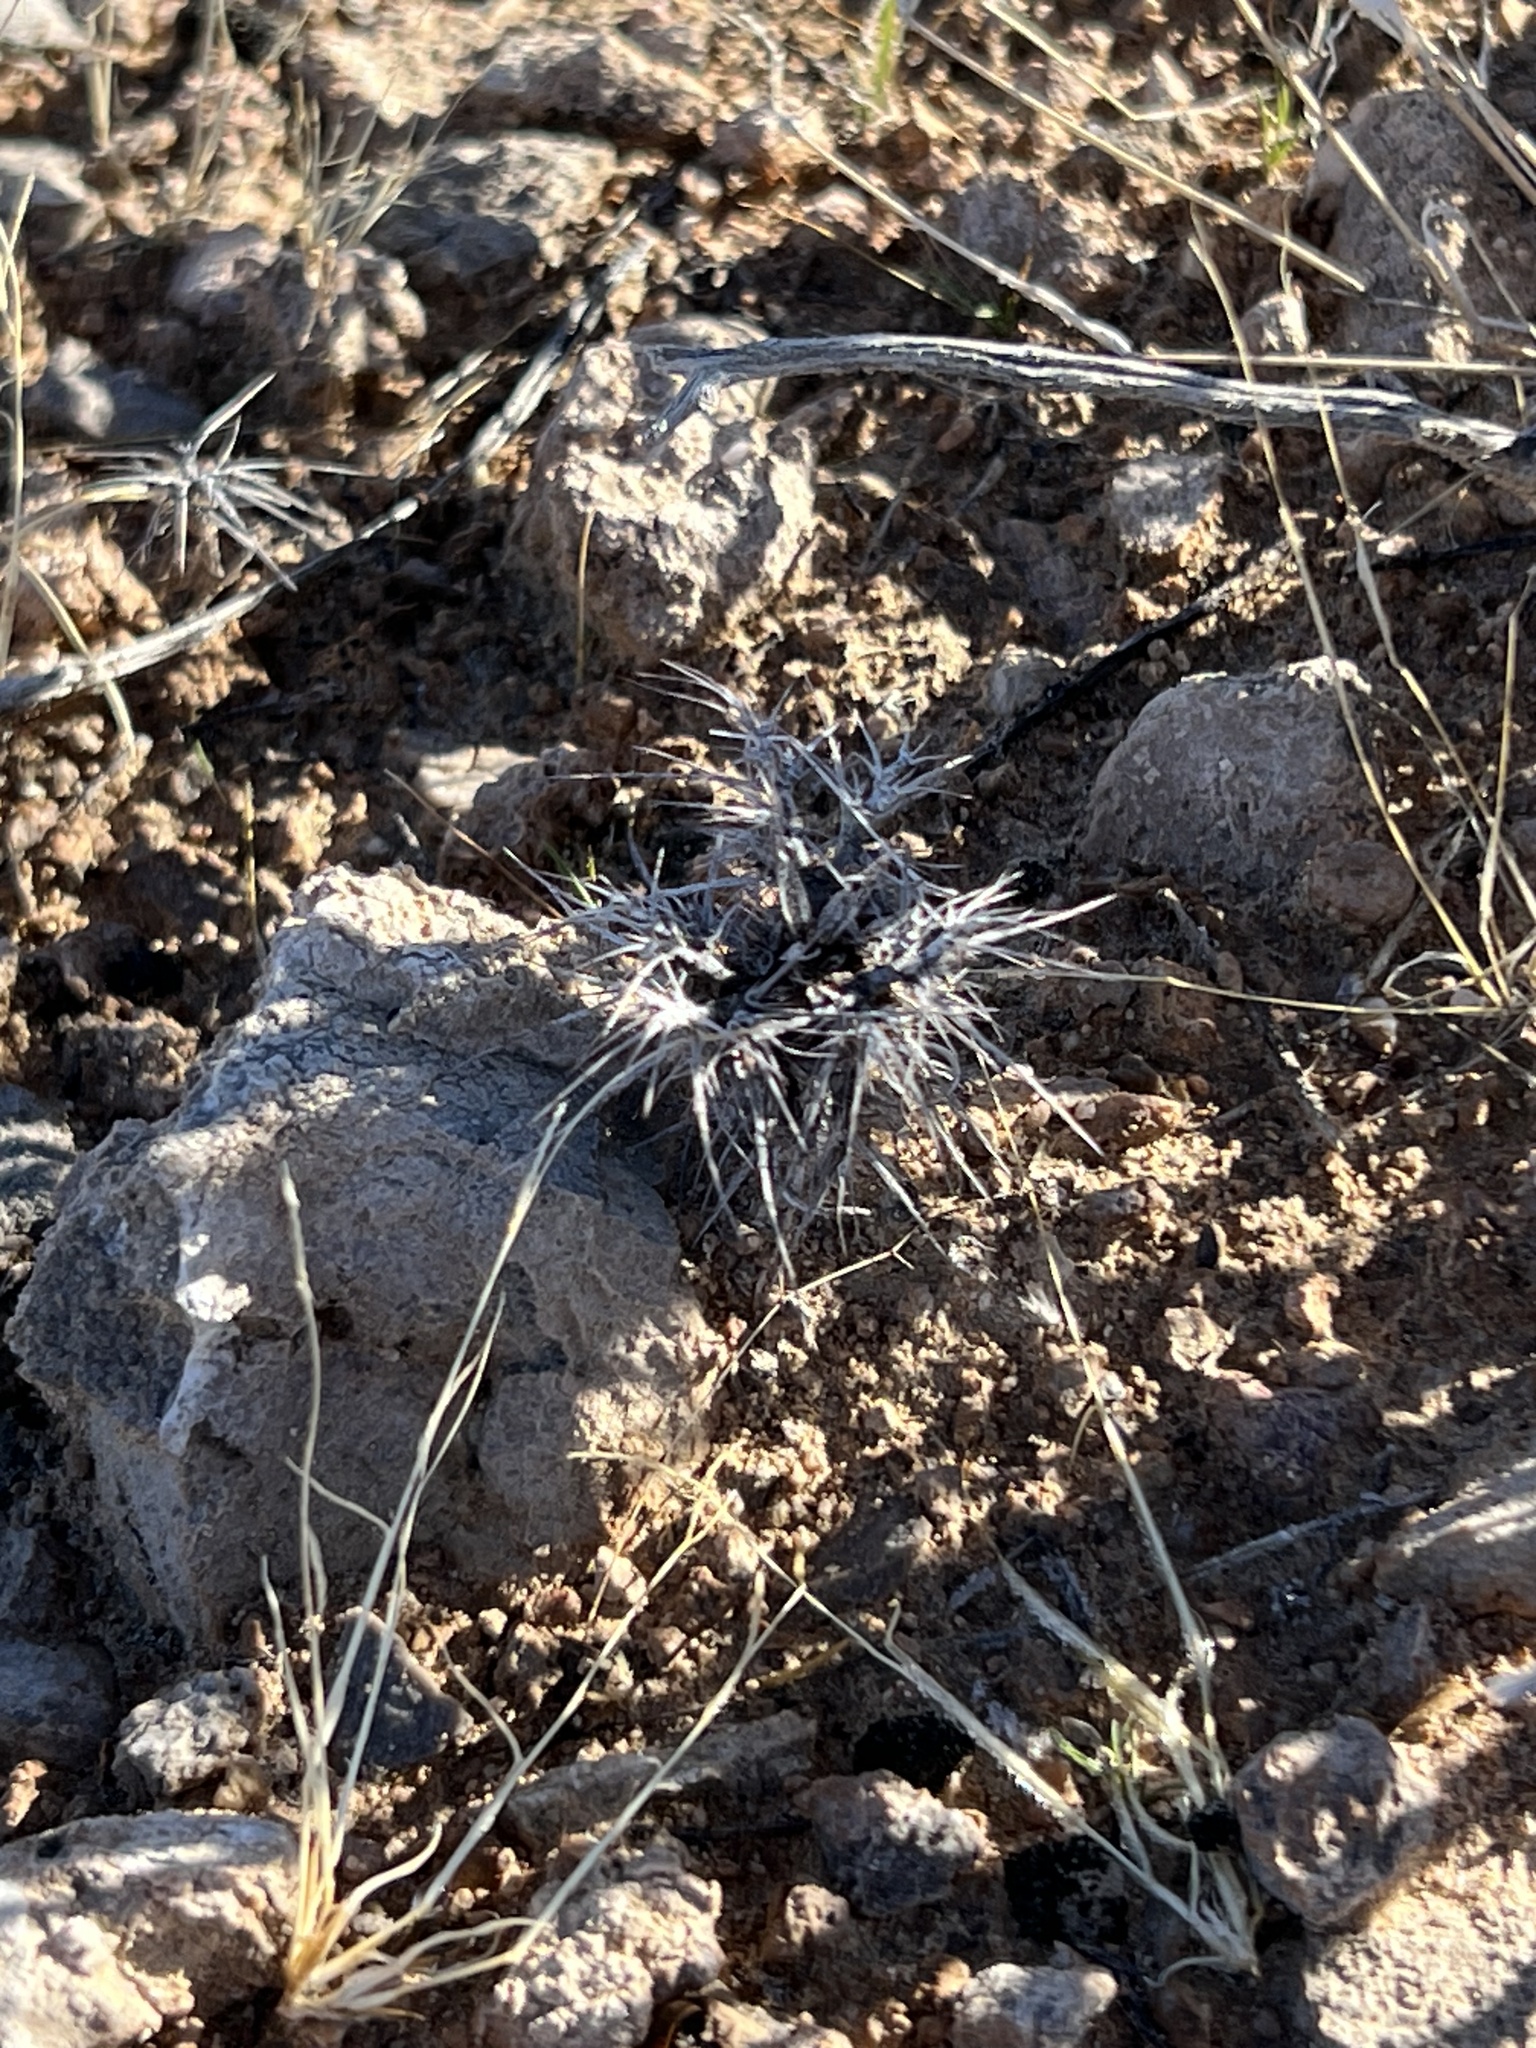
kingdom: Plantae
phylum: Tracheophyta
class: Magnoliopsida
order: Caryophyllales
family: Polygonaceae
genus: Chorizanthe
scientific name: Chorizanthe rigida
